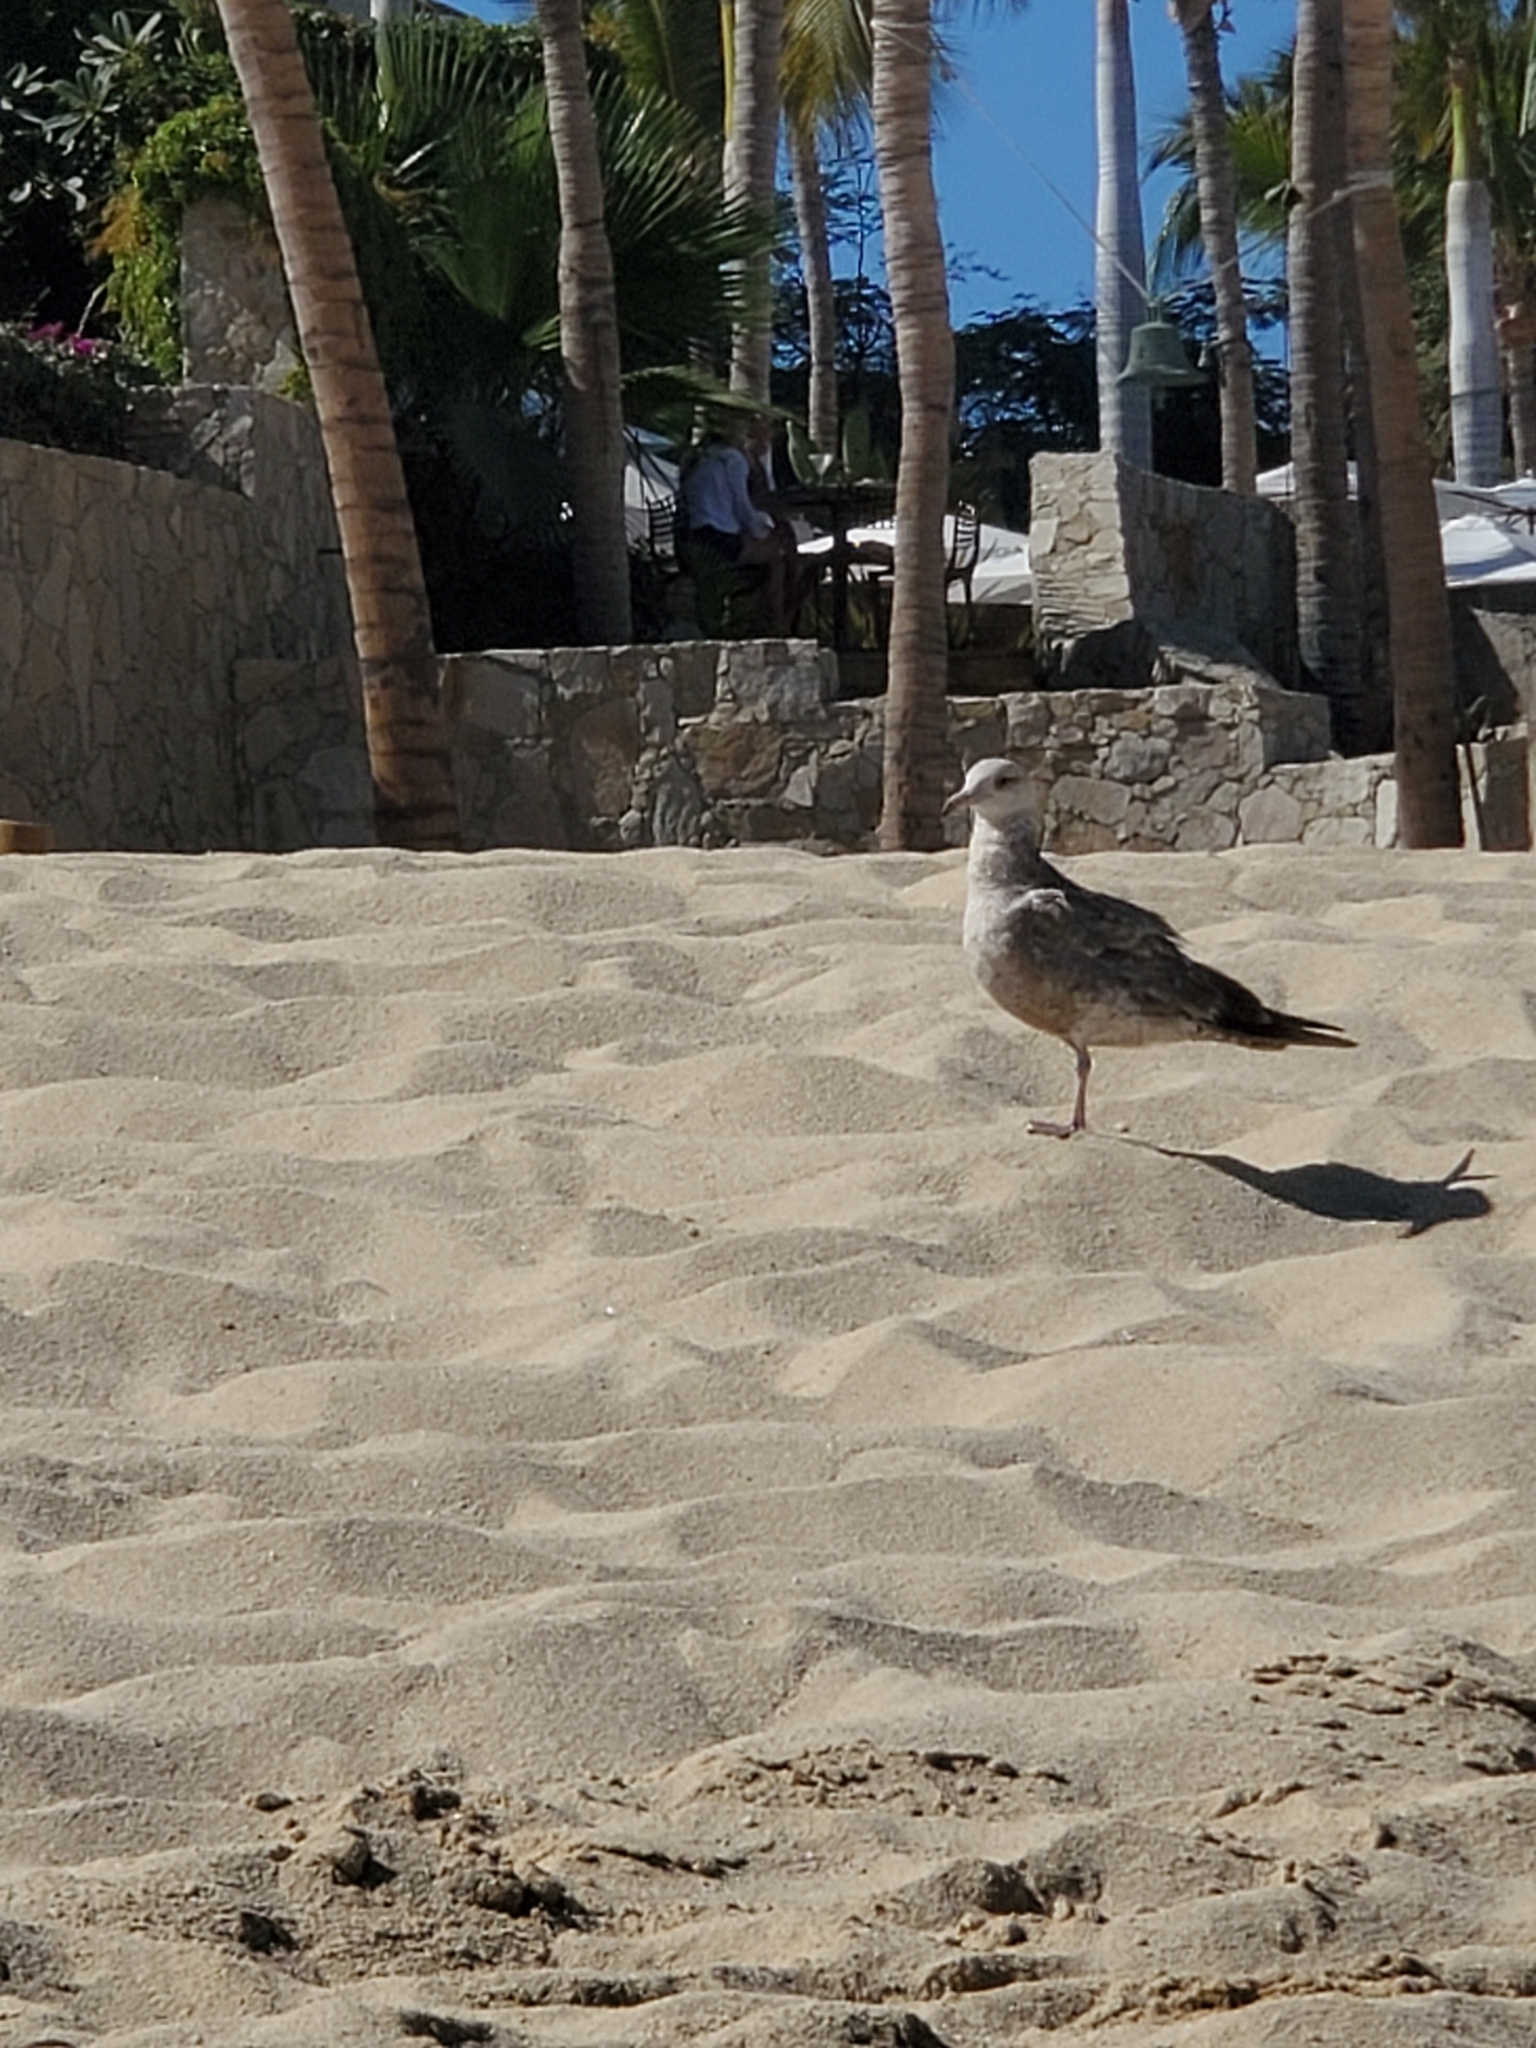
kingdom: Animalia
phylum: Chordata
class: Aves
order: Charadriiformes
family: Laridae
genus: Larus
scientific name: Larus occidentalis
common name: Western gull
